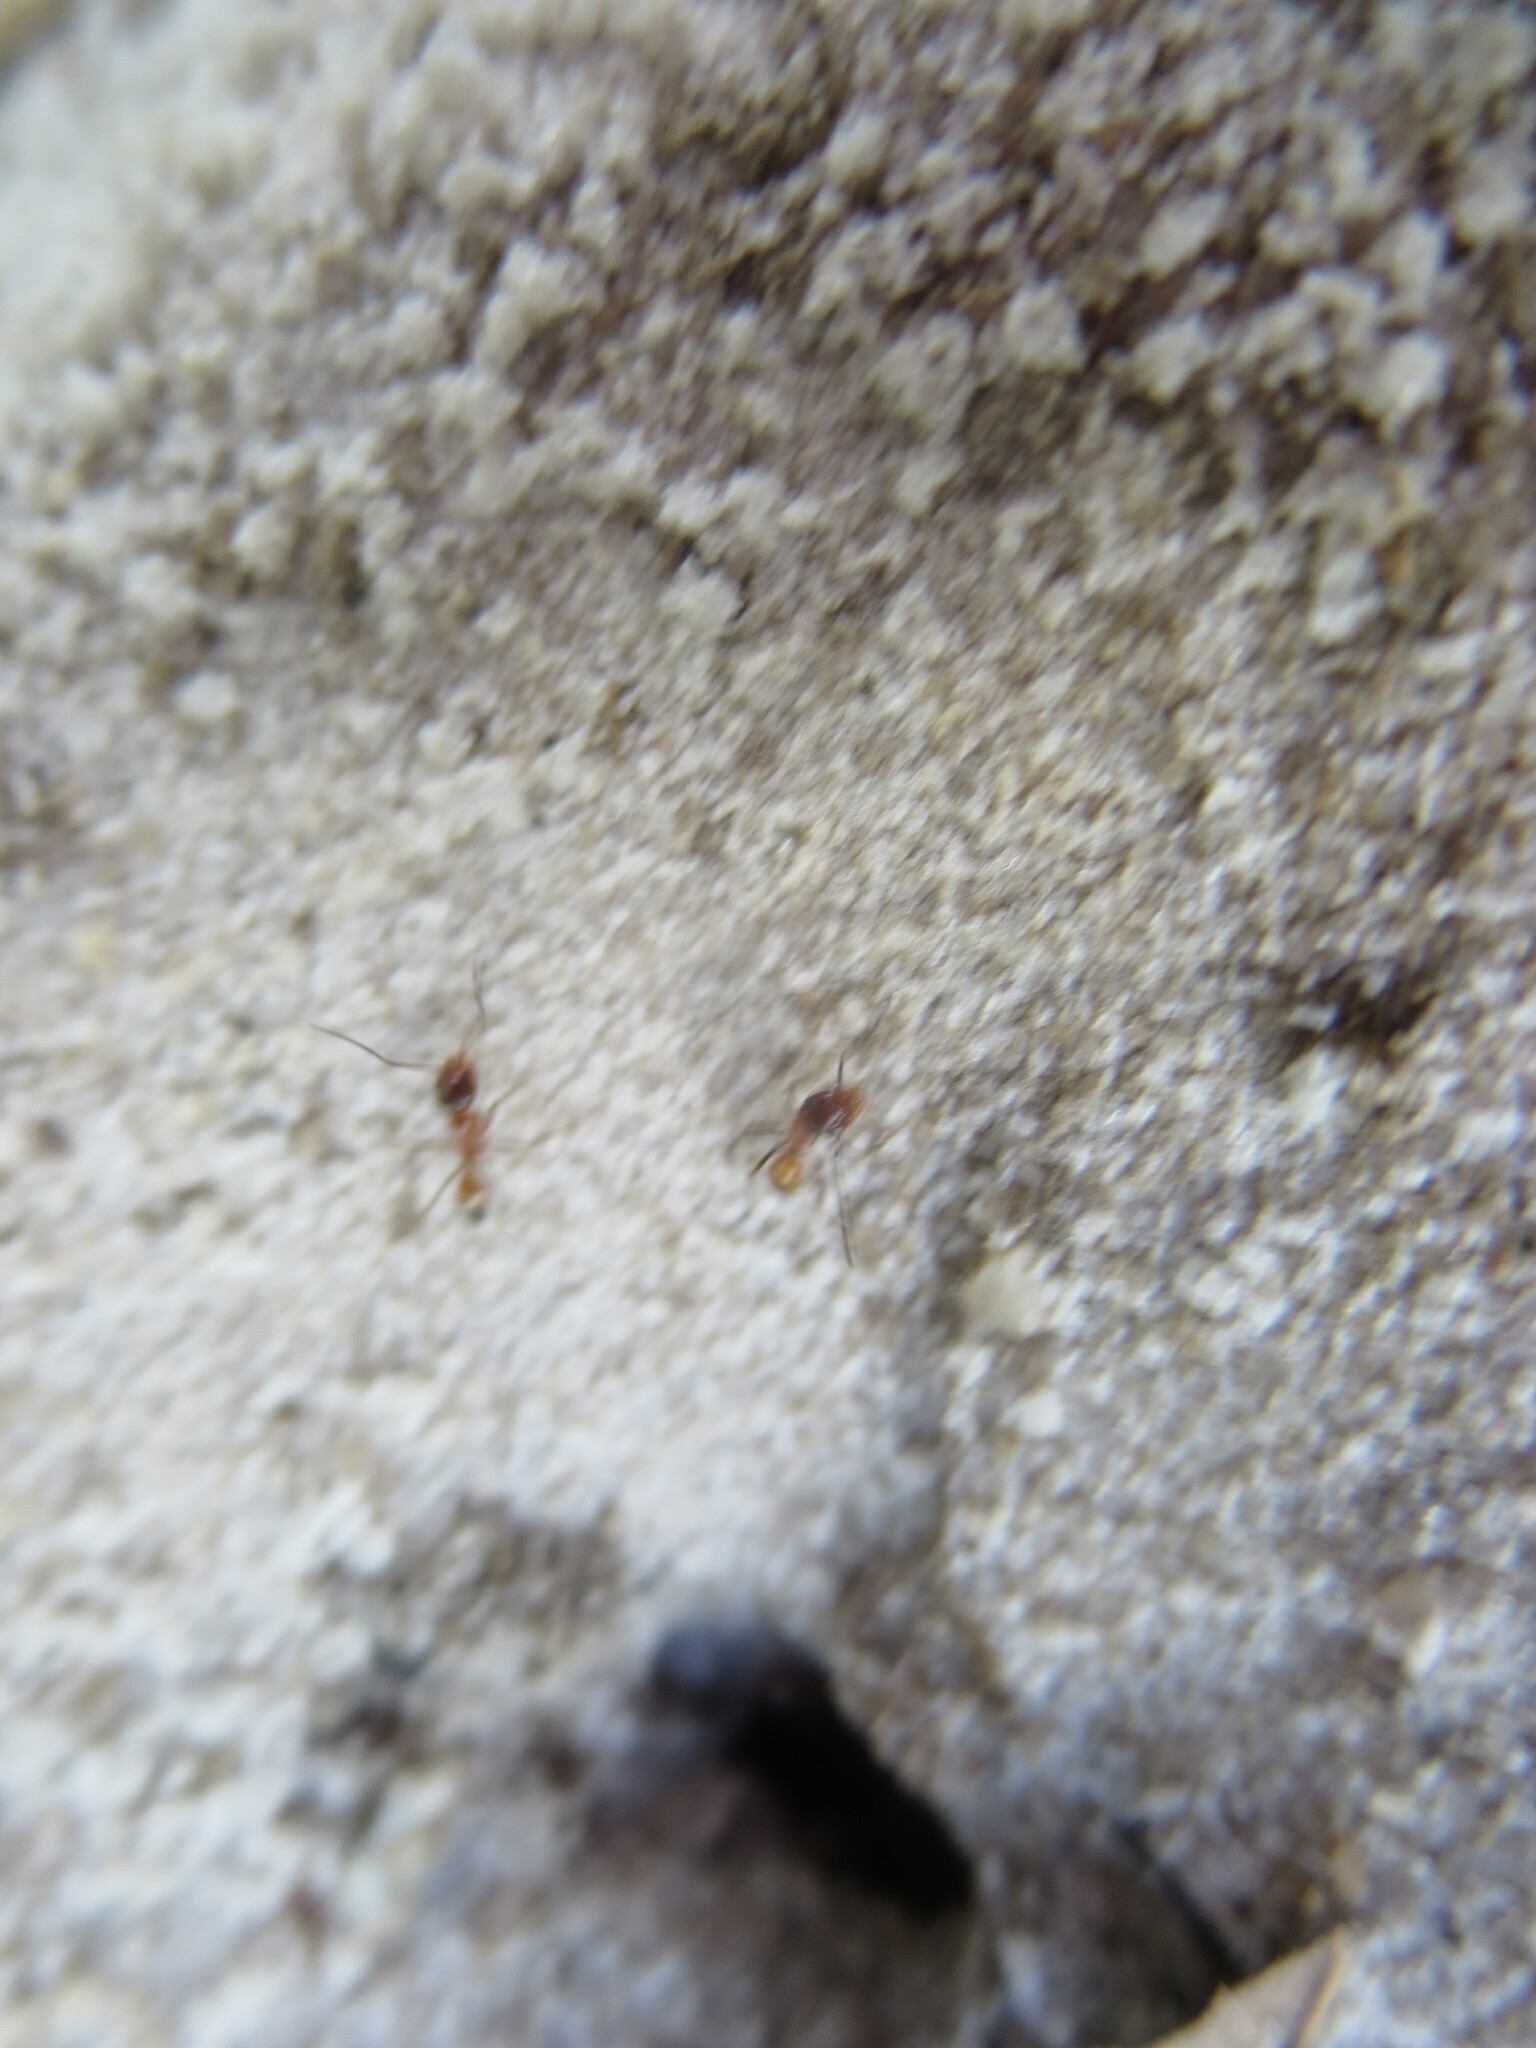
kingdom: Animalia
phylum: Arthropoda
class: Insecta
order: Hymenoptera
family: Formicidae
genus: Dorymyrmex
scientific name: Dorymyrmex bureni
